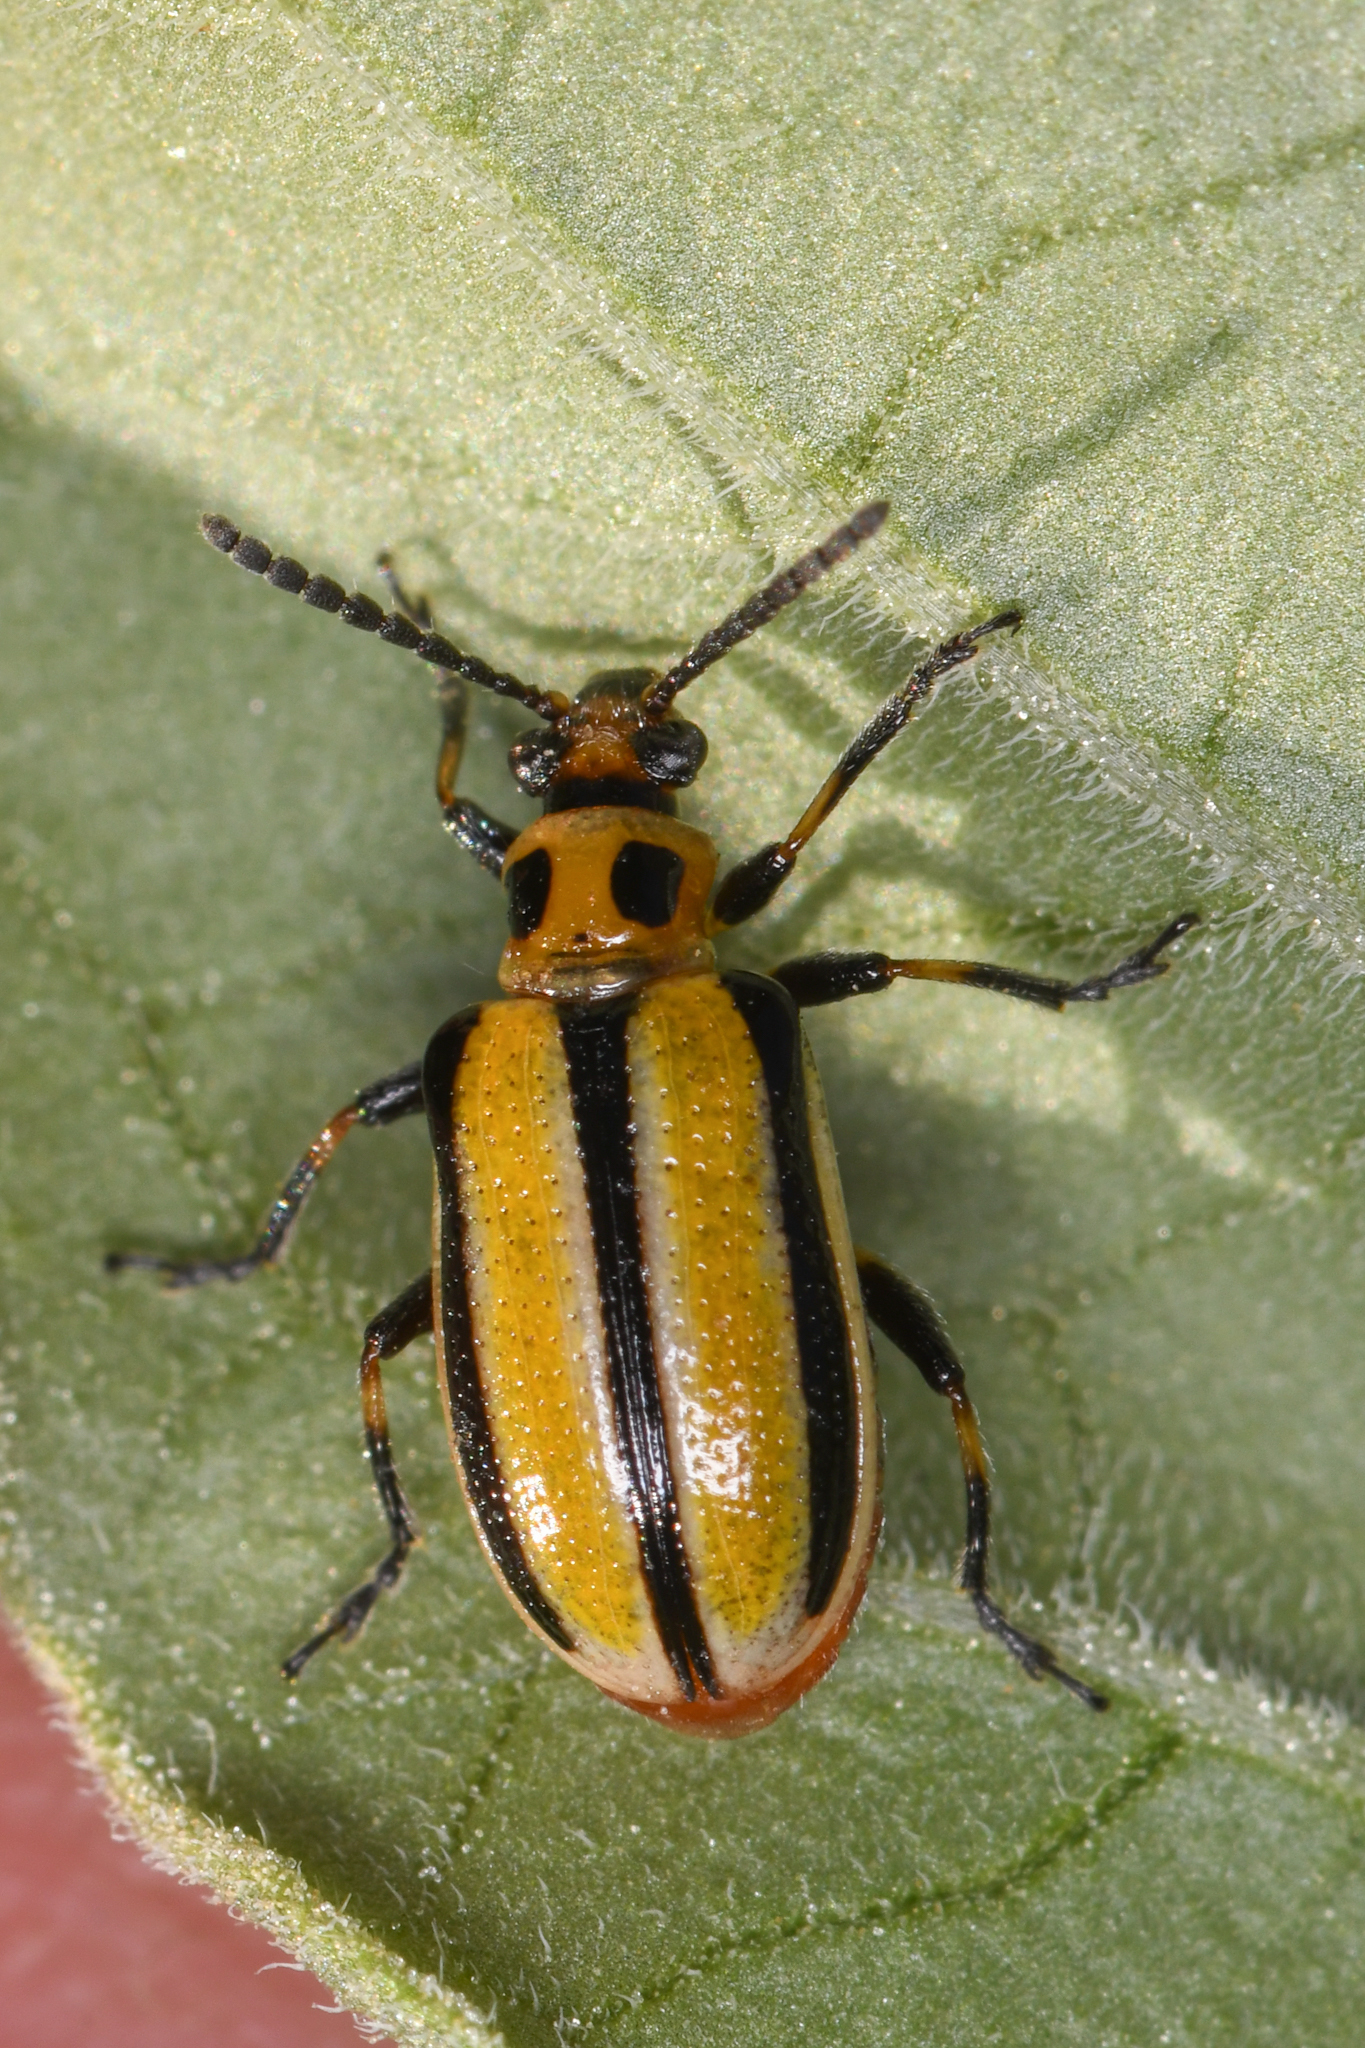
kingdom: Animalia
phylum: Arthropoda
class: Insecta
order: Coleoptera
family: Chrysomelidae
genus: Lema
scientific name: Lema daturaphila
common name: Leaf beetle
